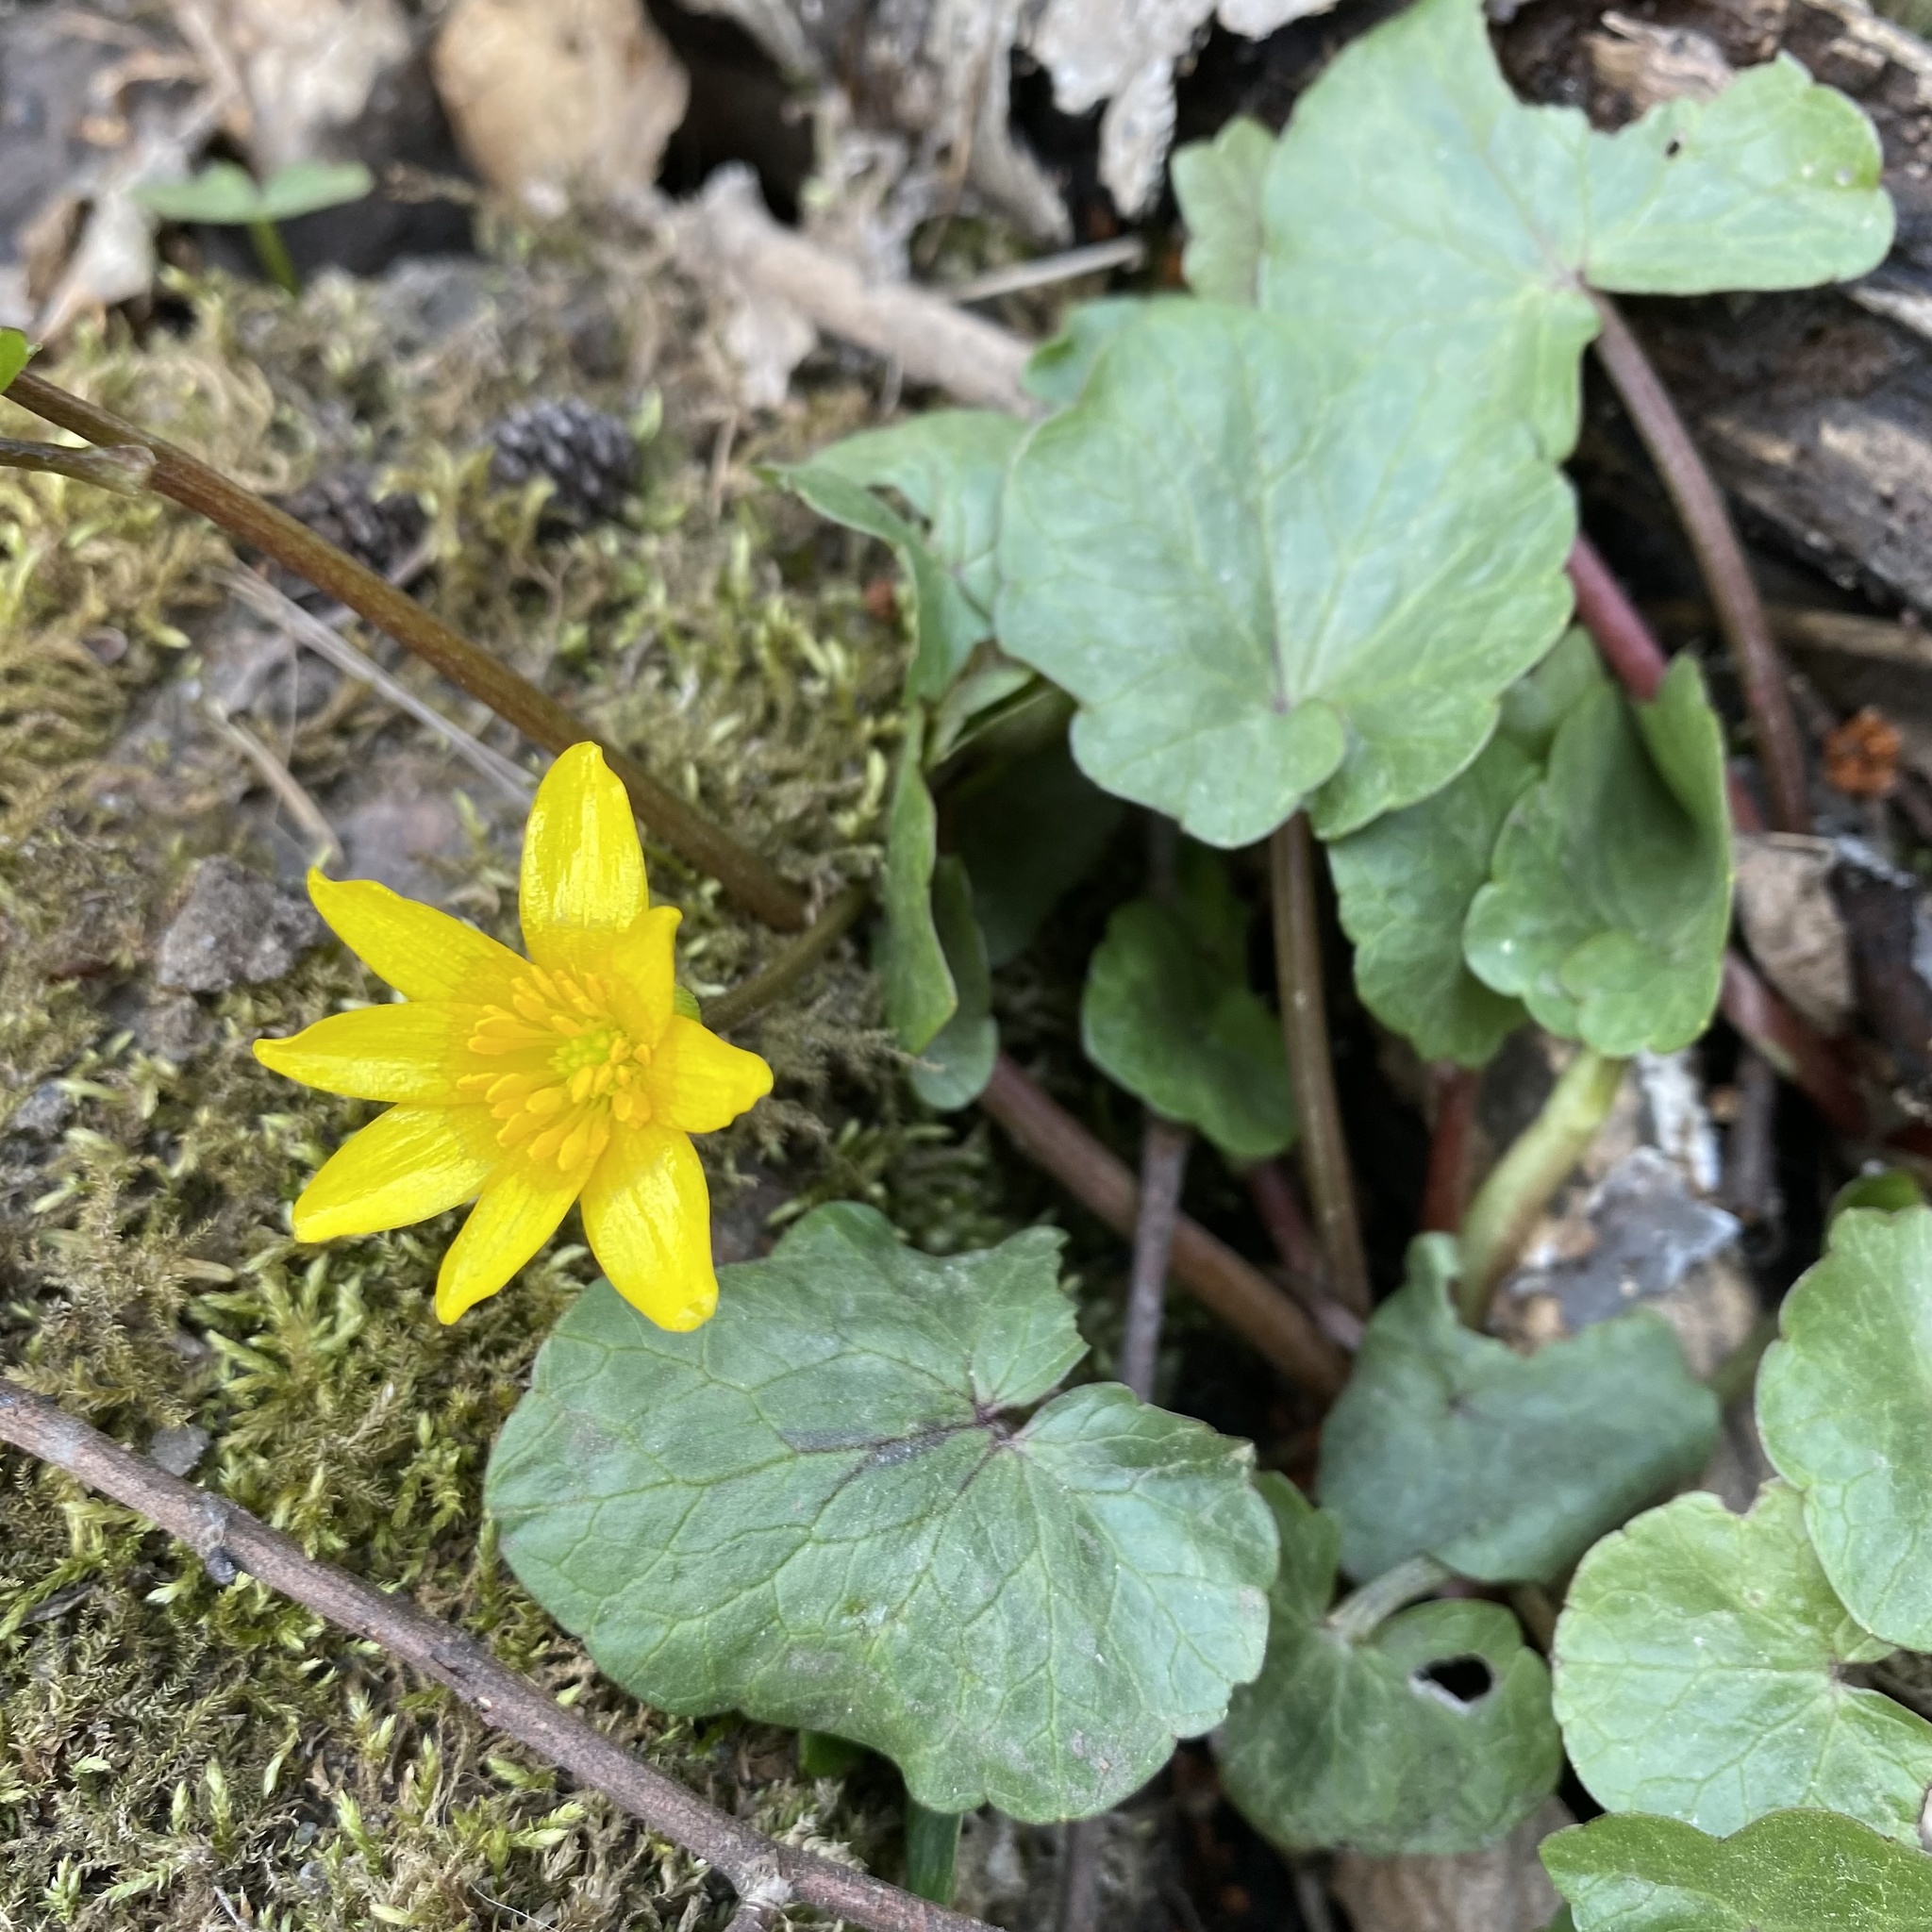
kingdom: Plantae
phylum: Tracheophyta
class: Magnoliopsida
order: Ranunculales
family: Ranunculaceae
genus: Ficaria
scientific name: Ficaria verna
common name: Lesser celandine
